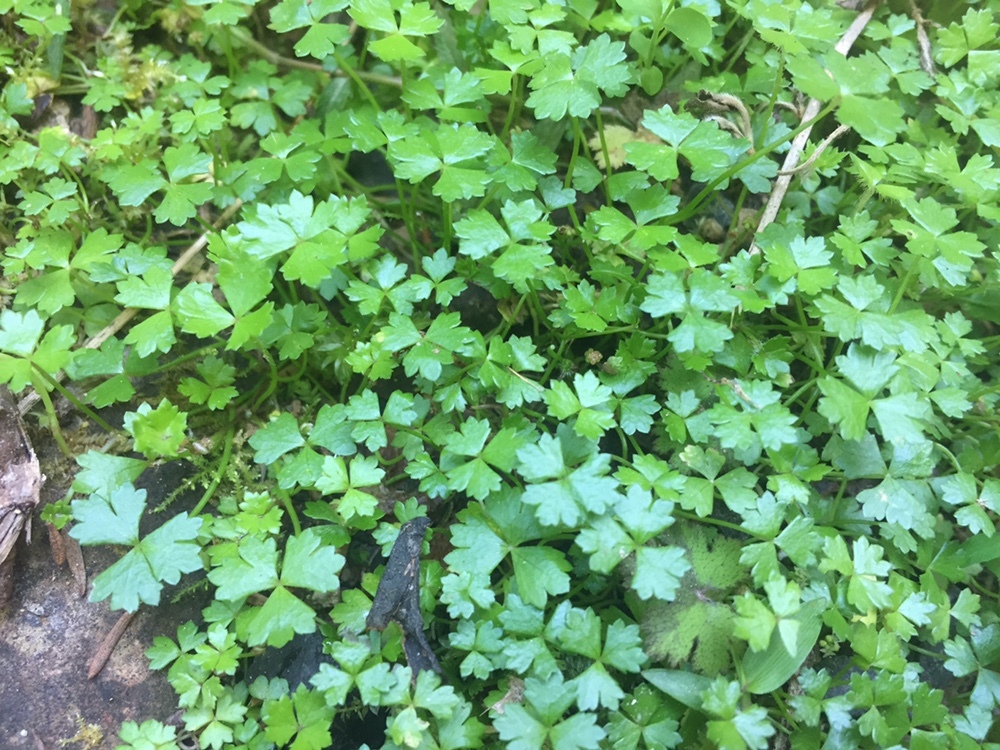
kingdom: Plantae
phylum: Tracheophyta
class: Magnoliopsida
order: Apiales
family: Araliaceae
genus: Hydrocotyle
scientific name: Hydrocotyle tripartita
